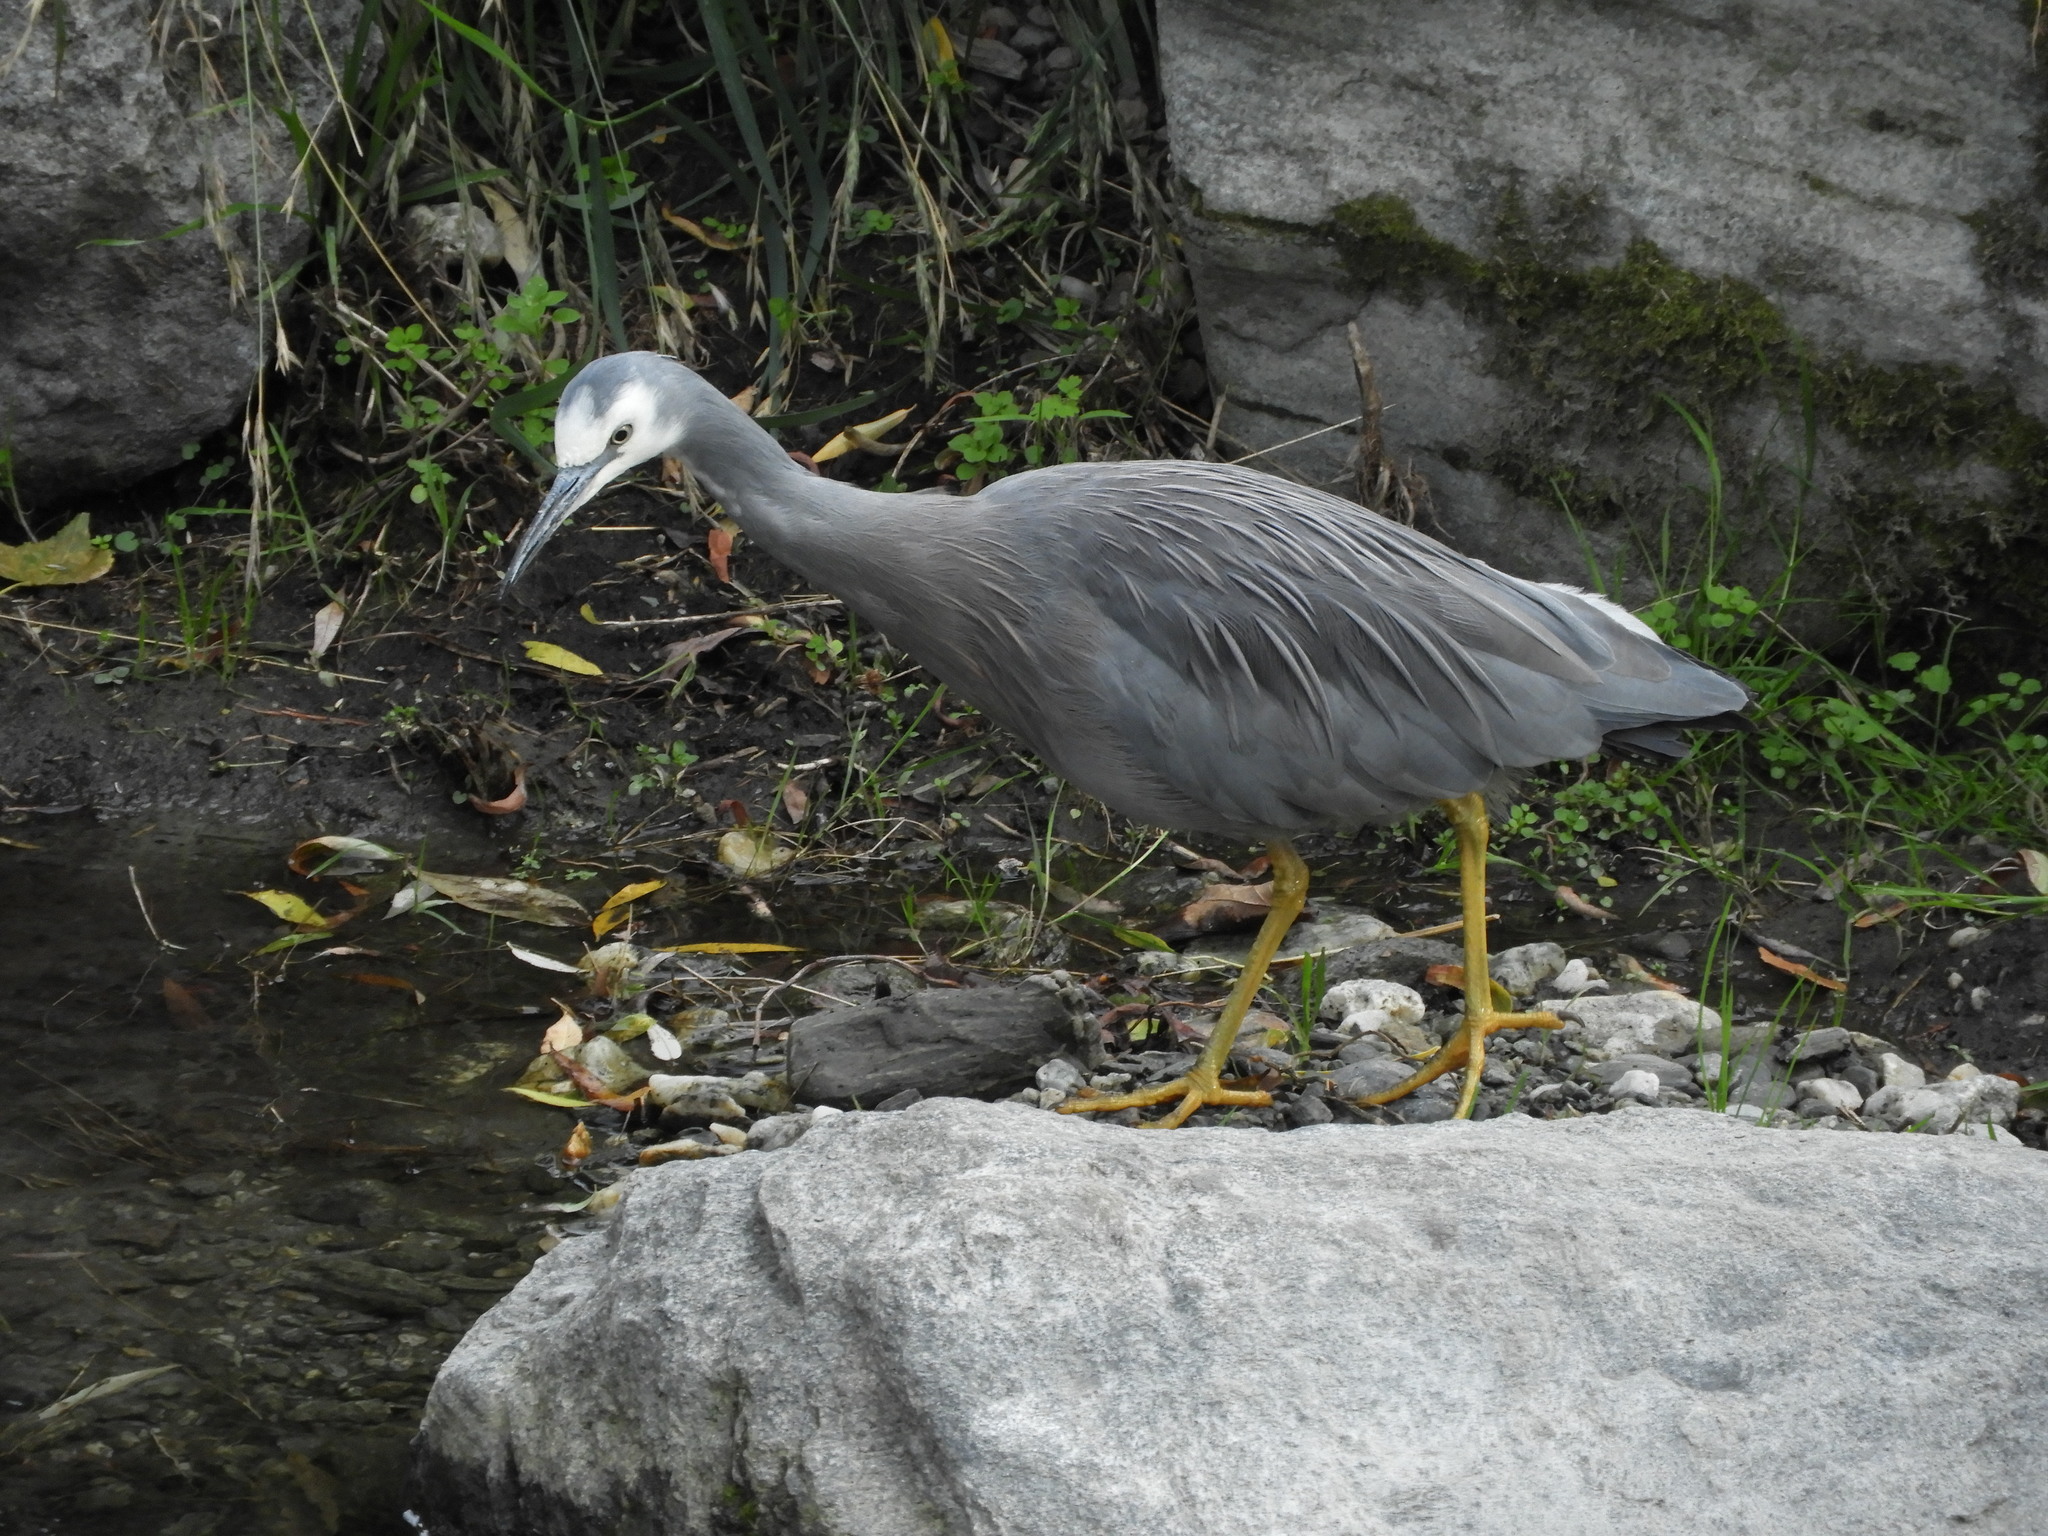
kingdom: Animalia
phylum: Chordata
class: Aves
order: Pelecaniformes
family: Ardeidae
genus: Egretta
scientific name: Egretta novaehollandiae
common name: White-faced heron
